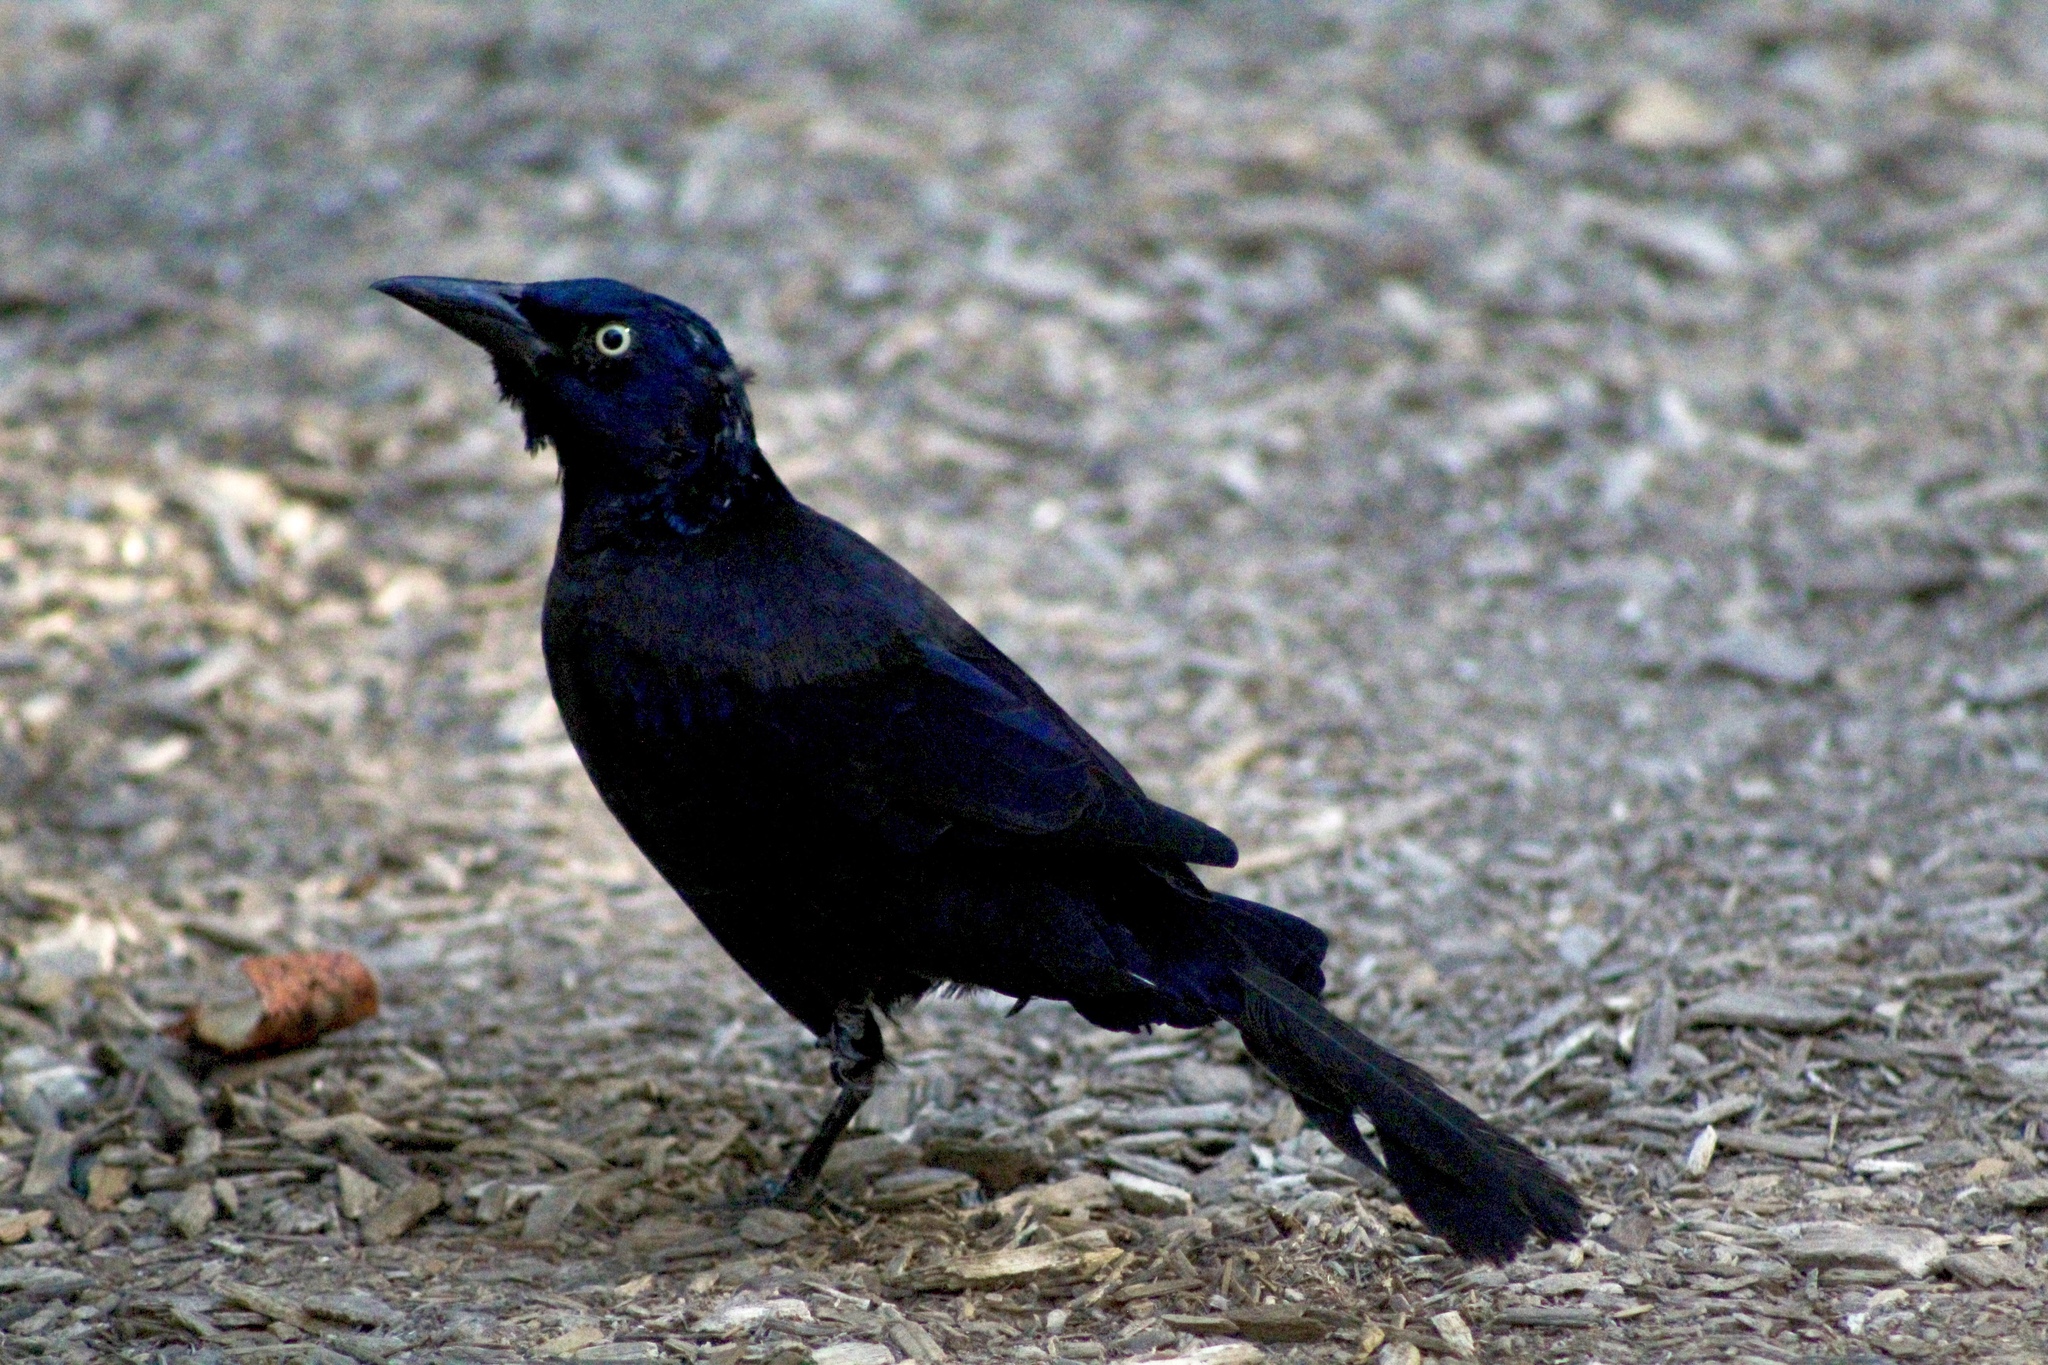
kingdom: Animalia
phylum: Chordata
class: Aves
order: Passeriformes
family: Icteridae
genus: Quiscalus
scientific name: Quiscalus quiscula
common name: Common grackle
